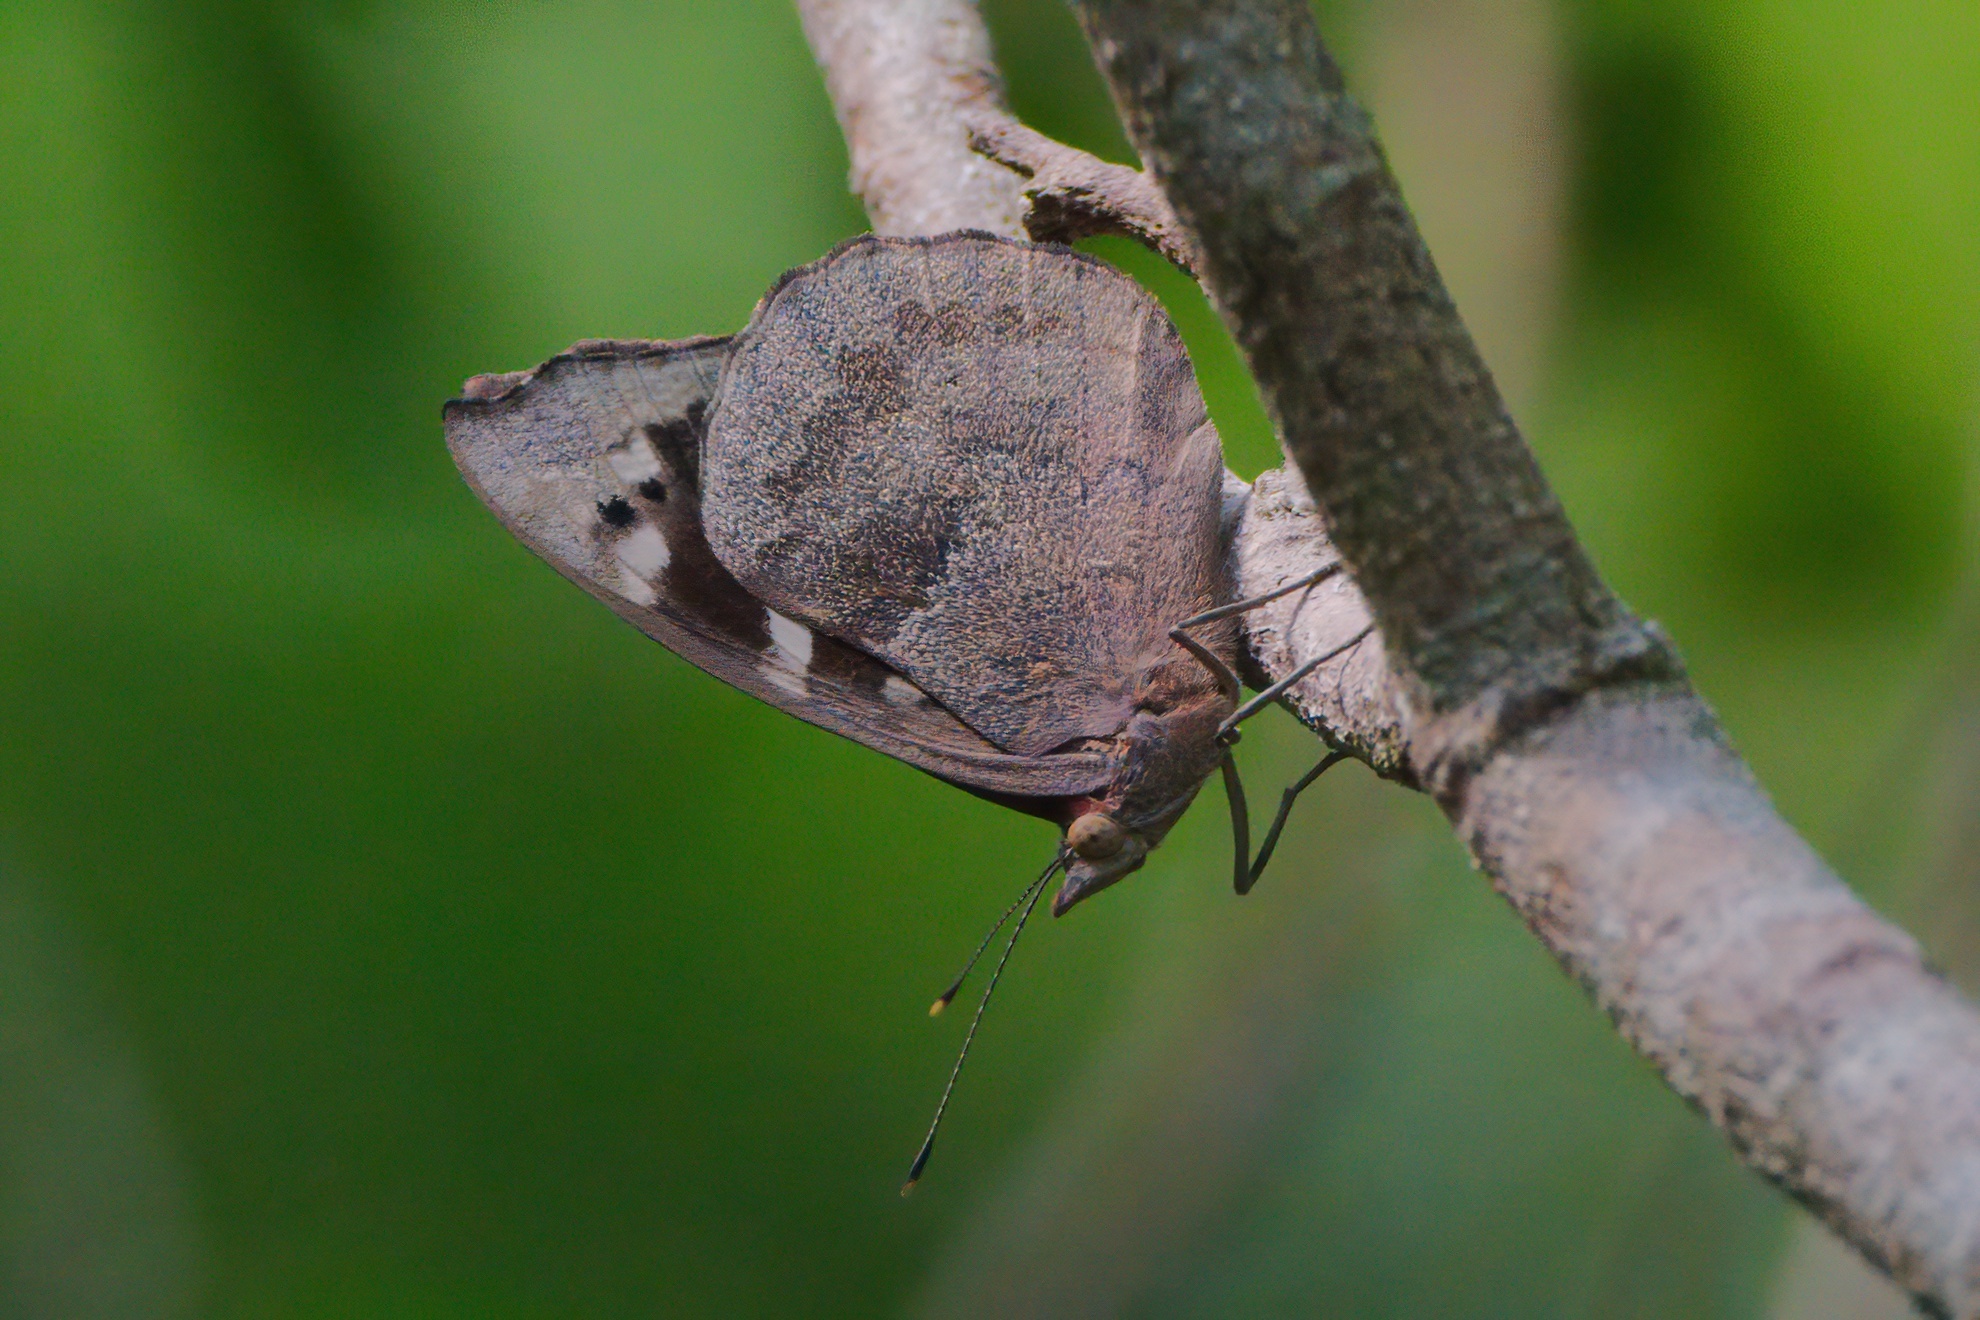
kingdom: Animalia
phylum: Arthropoda
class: Insecta
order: Lepidoptera
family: Nymphalidae
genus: Eunica
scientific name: Eunica tatila
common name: Florida purplewing
